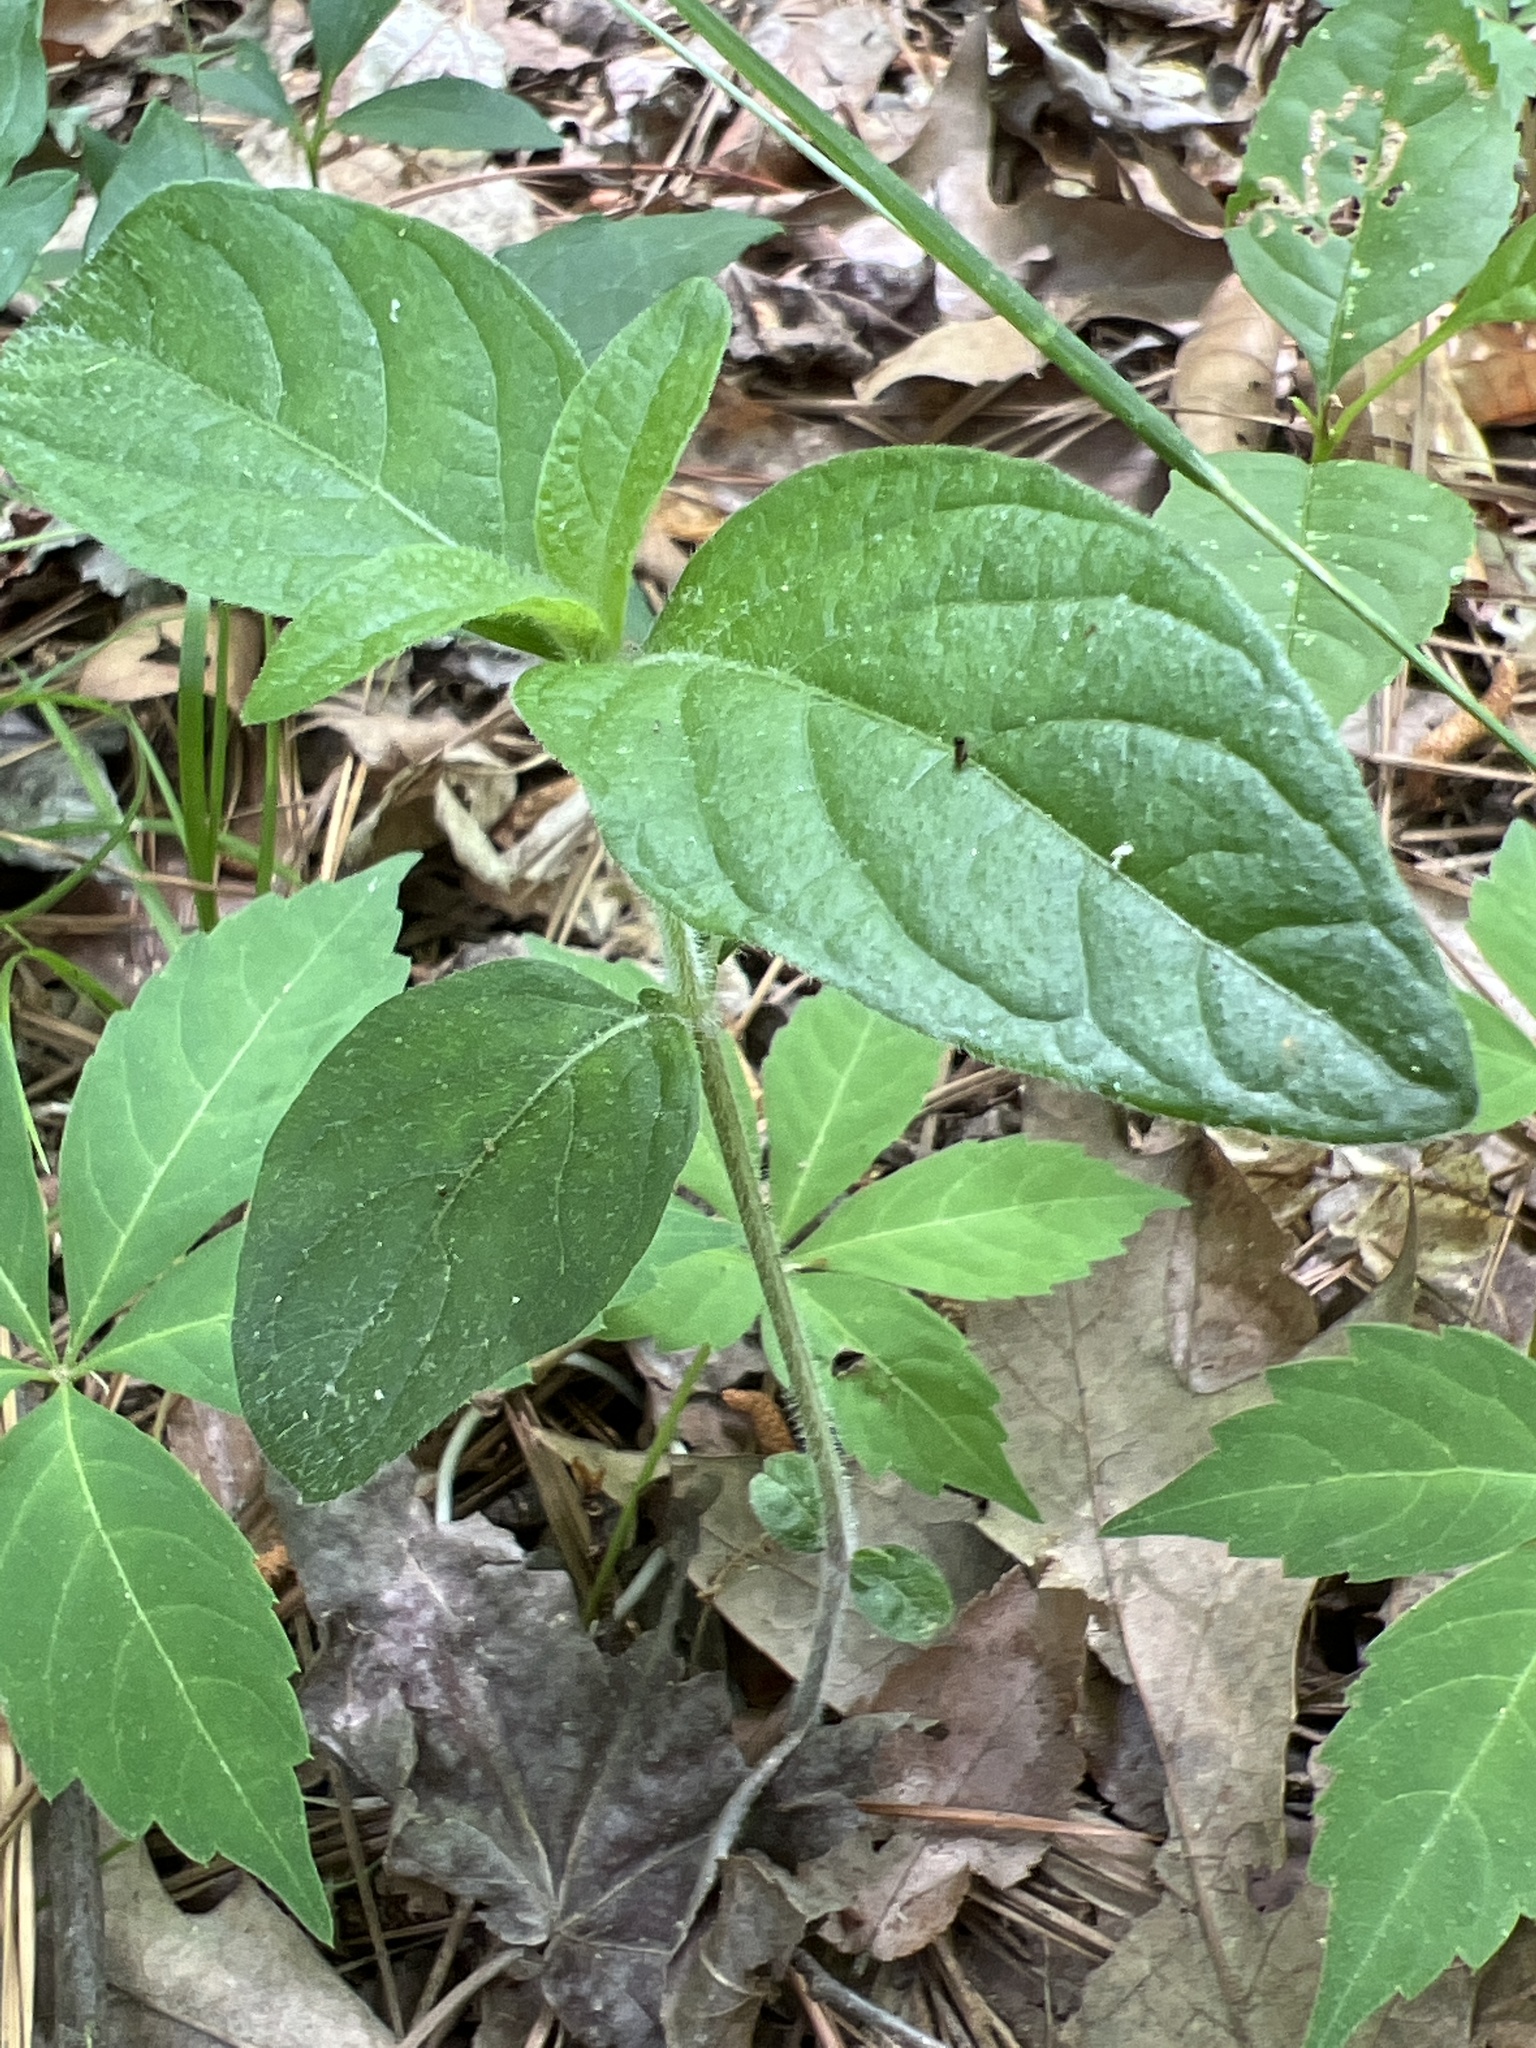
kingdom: Plantae
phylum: Tracheophyta
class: Magnoliopsida
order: Lamiales
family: Acanthaceae
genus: Ruellia
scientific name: Ruellia caroliniensis
